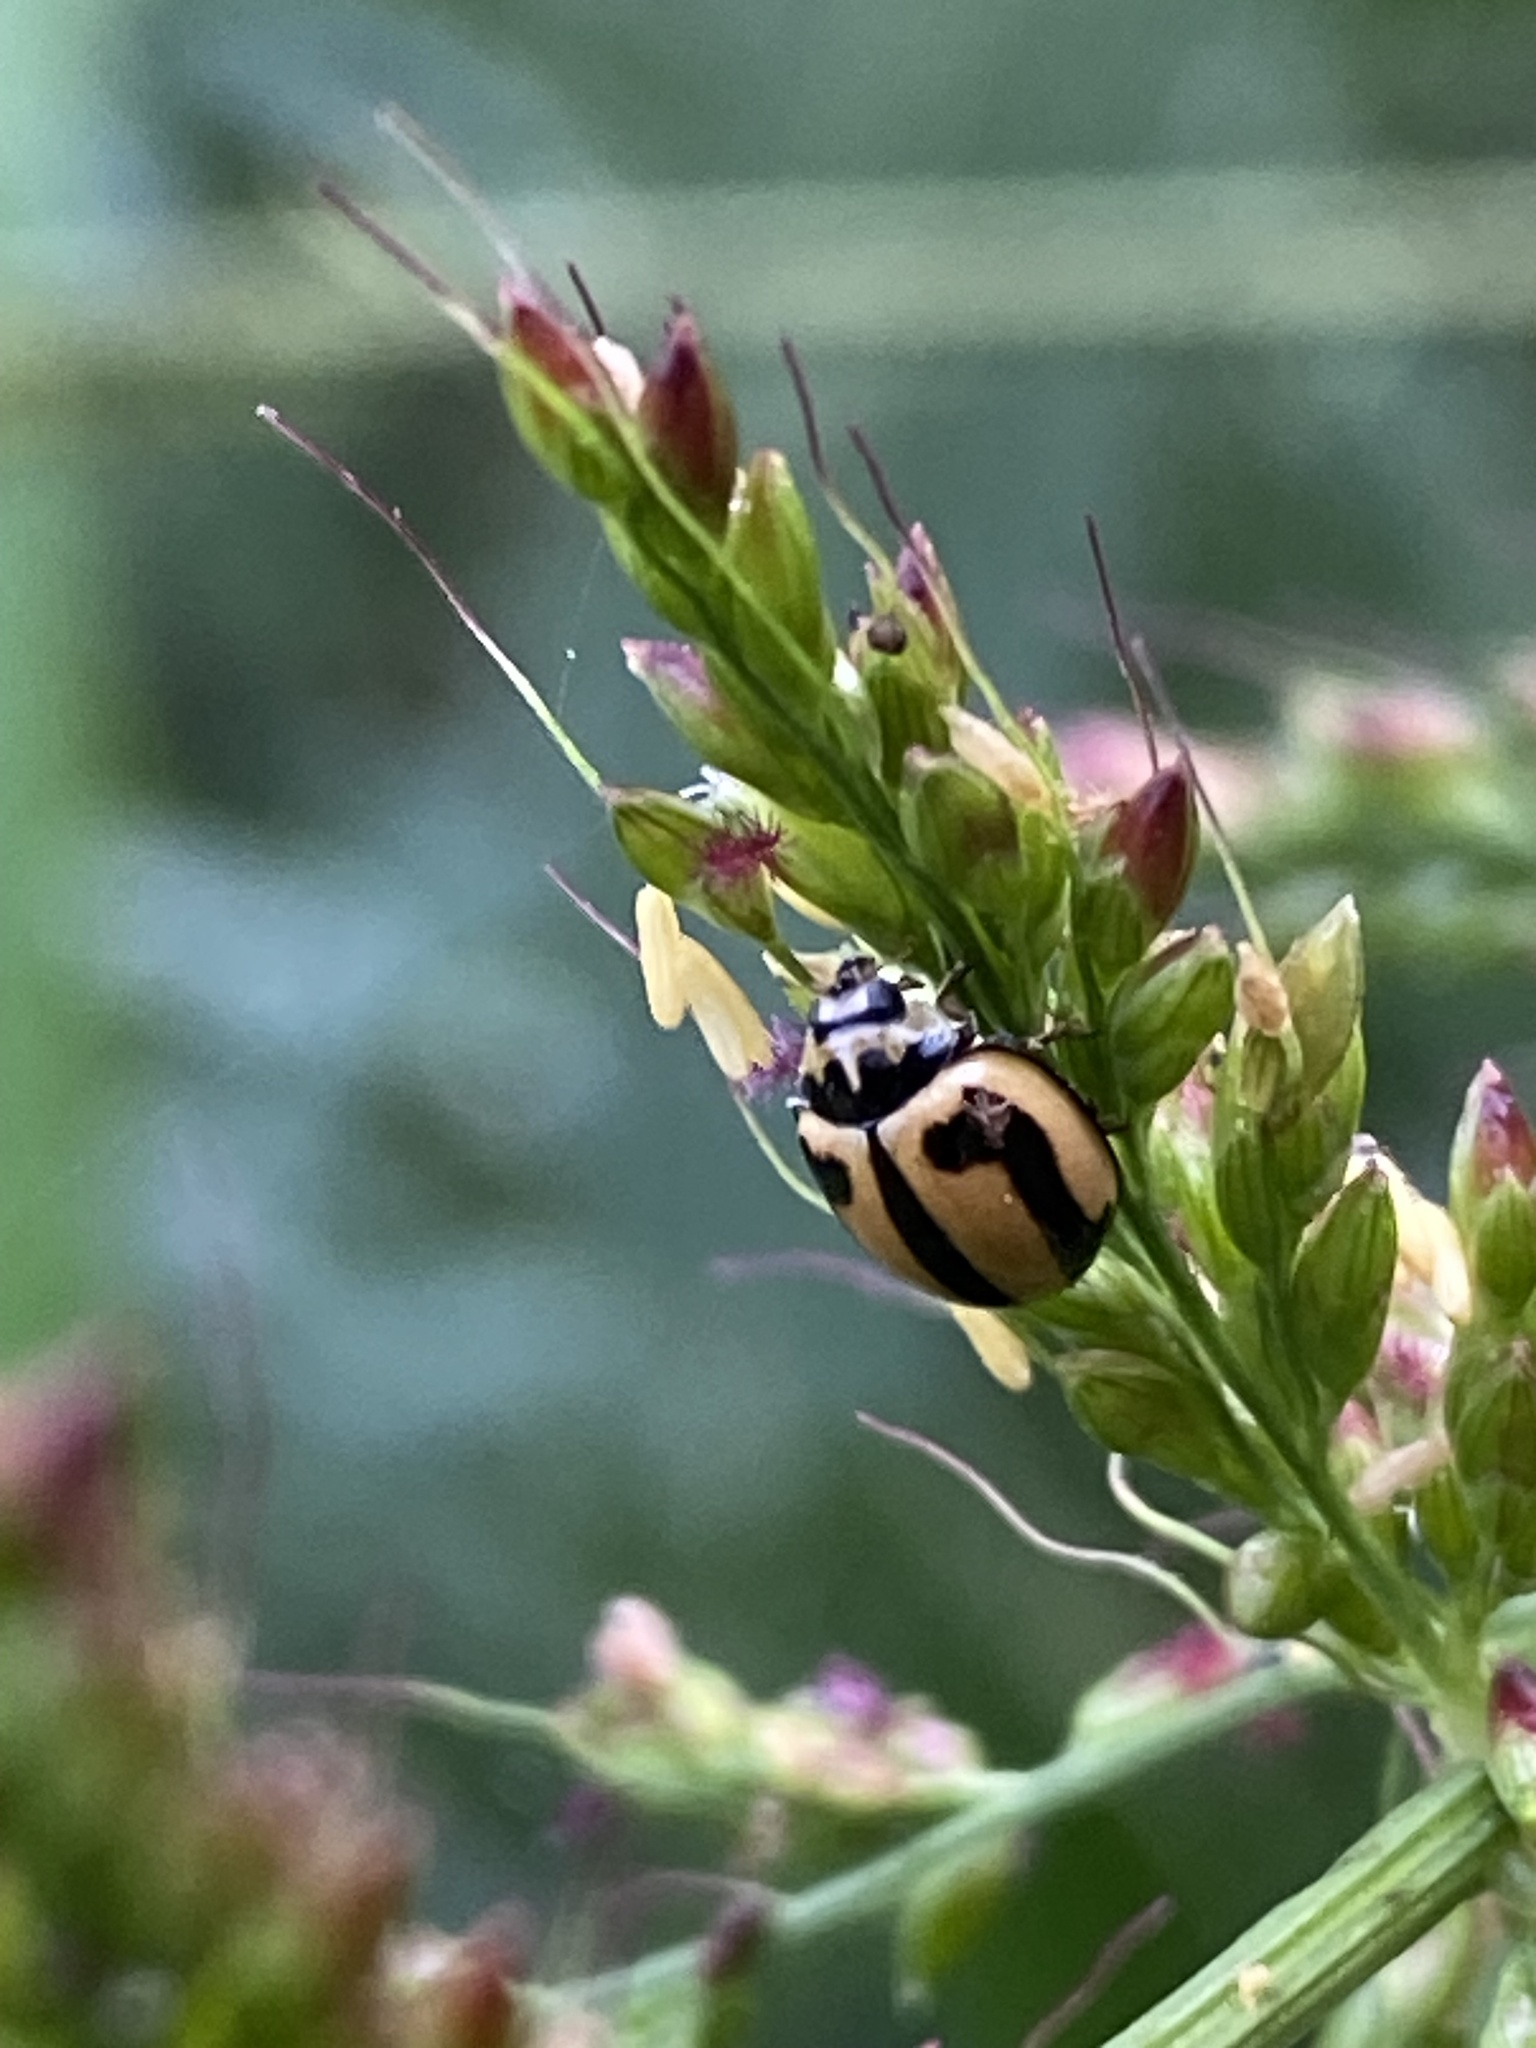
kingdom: Animalia
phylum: Arthropoda
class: Insecta
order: Coleoptera
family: Coccinellidae
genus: Micraspis
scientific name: Micraspis frenata
